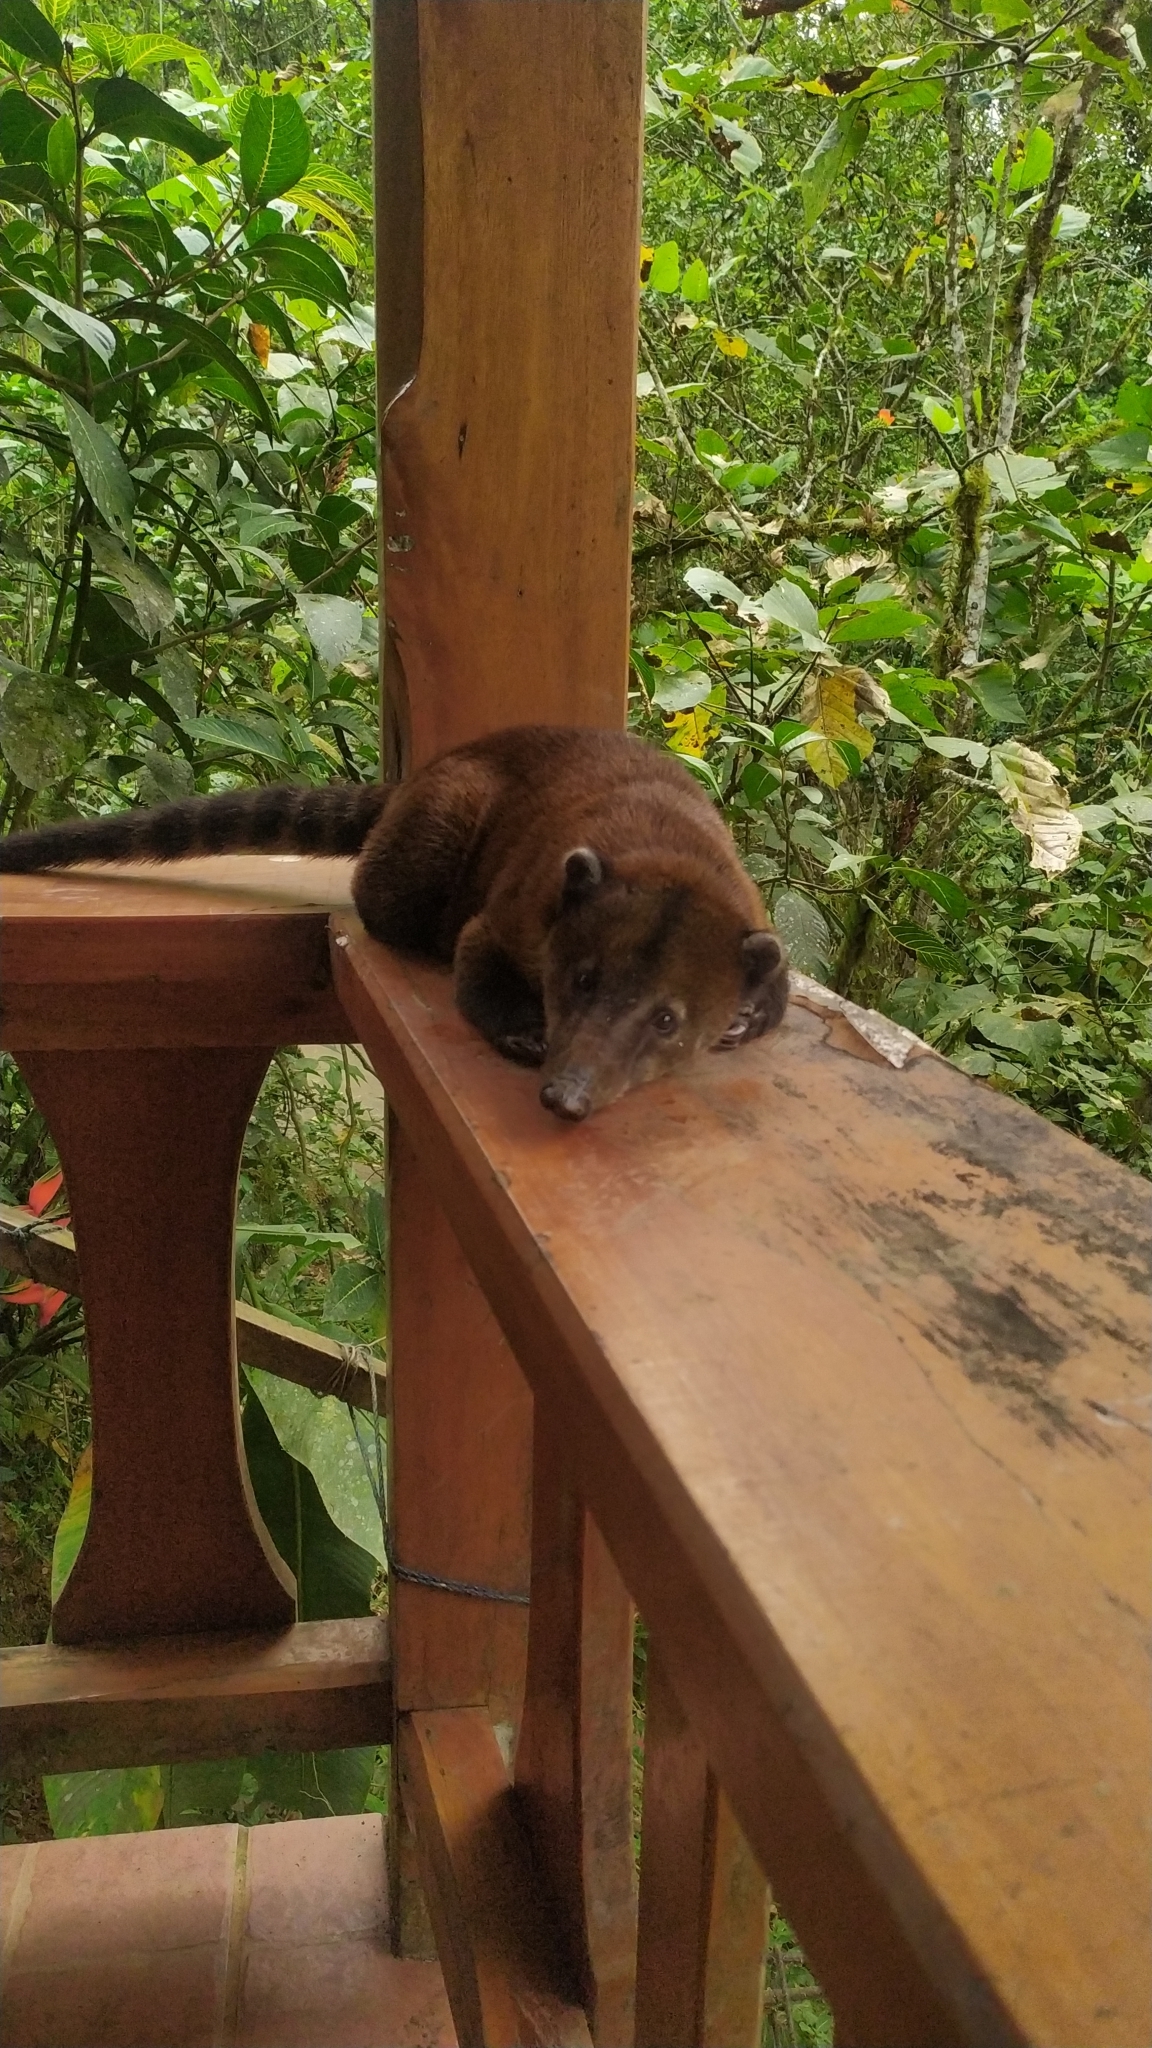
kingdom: Animalia
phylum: Chordata
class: Mammalia
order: Carnivora
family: Procyonidae
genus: Nasua
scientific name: Nasua nasua
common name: South american coati
